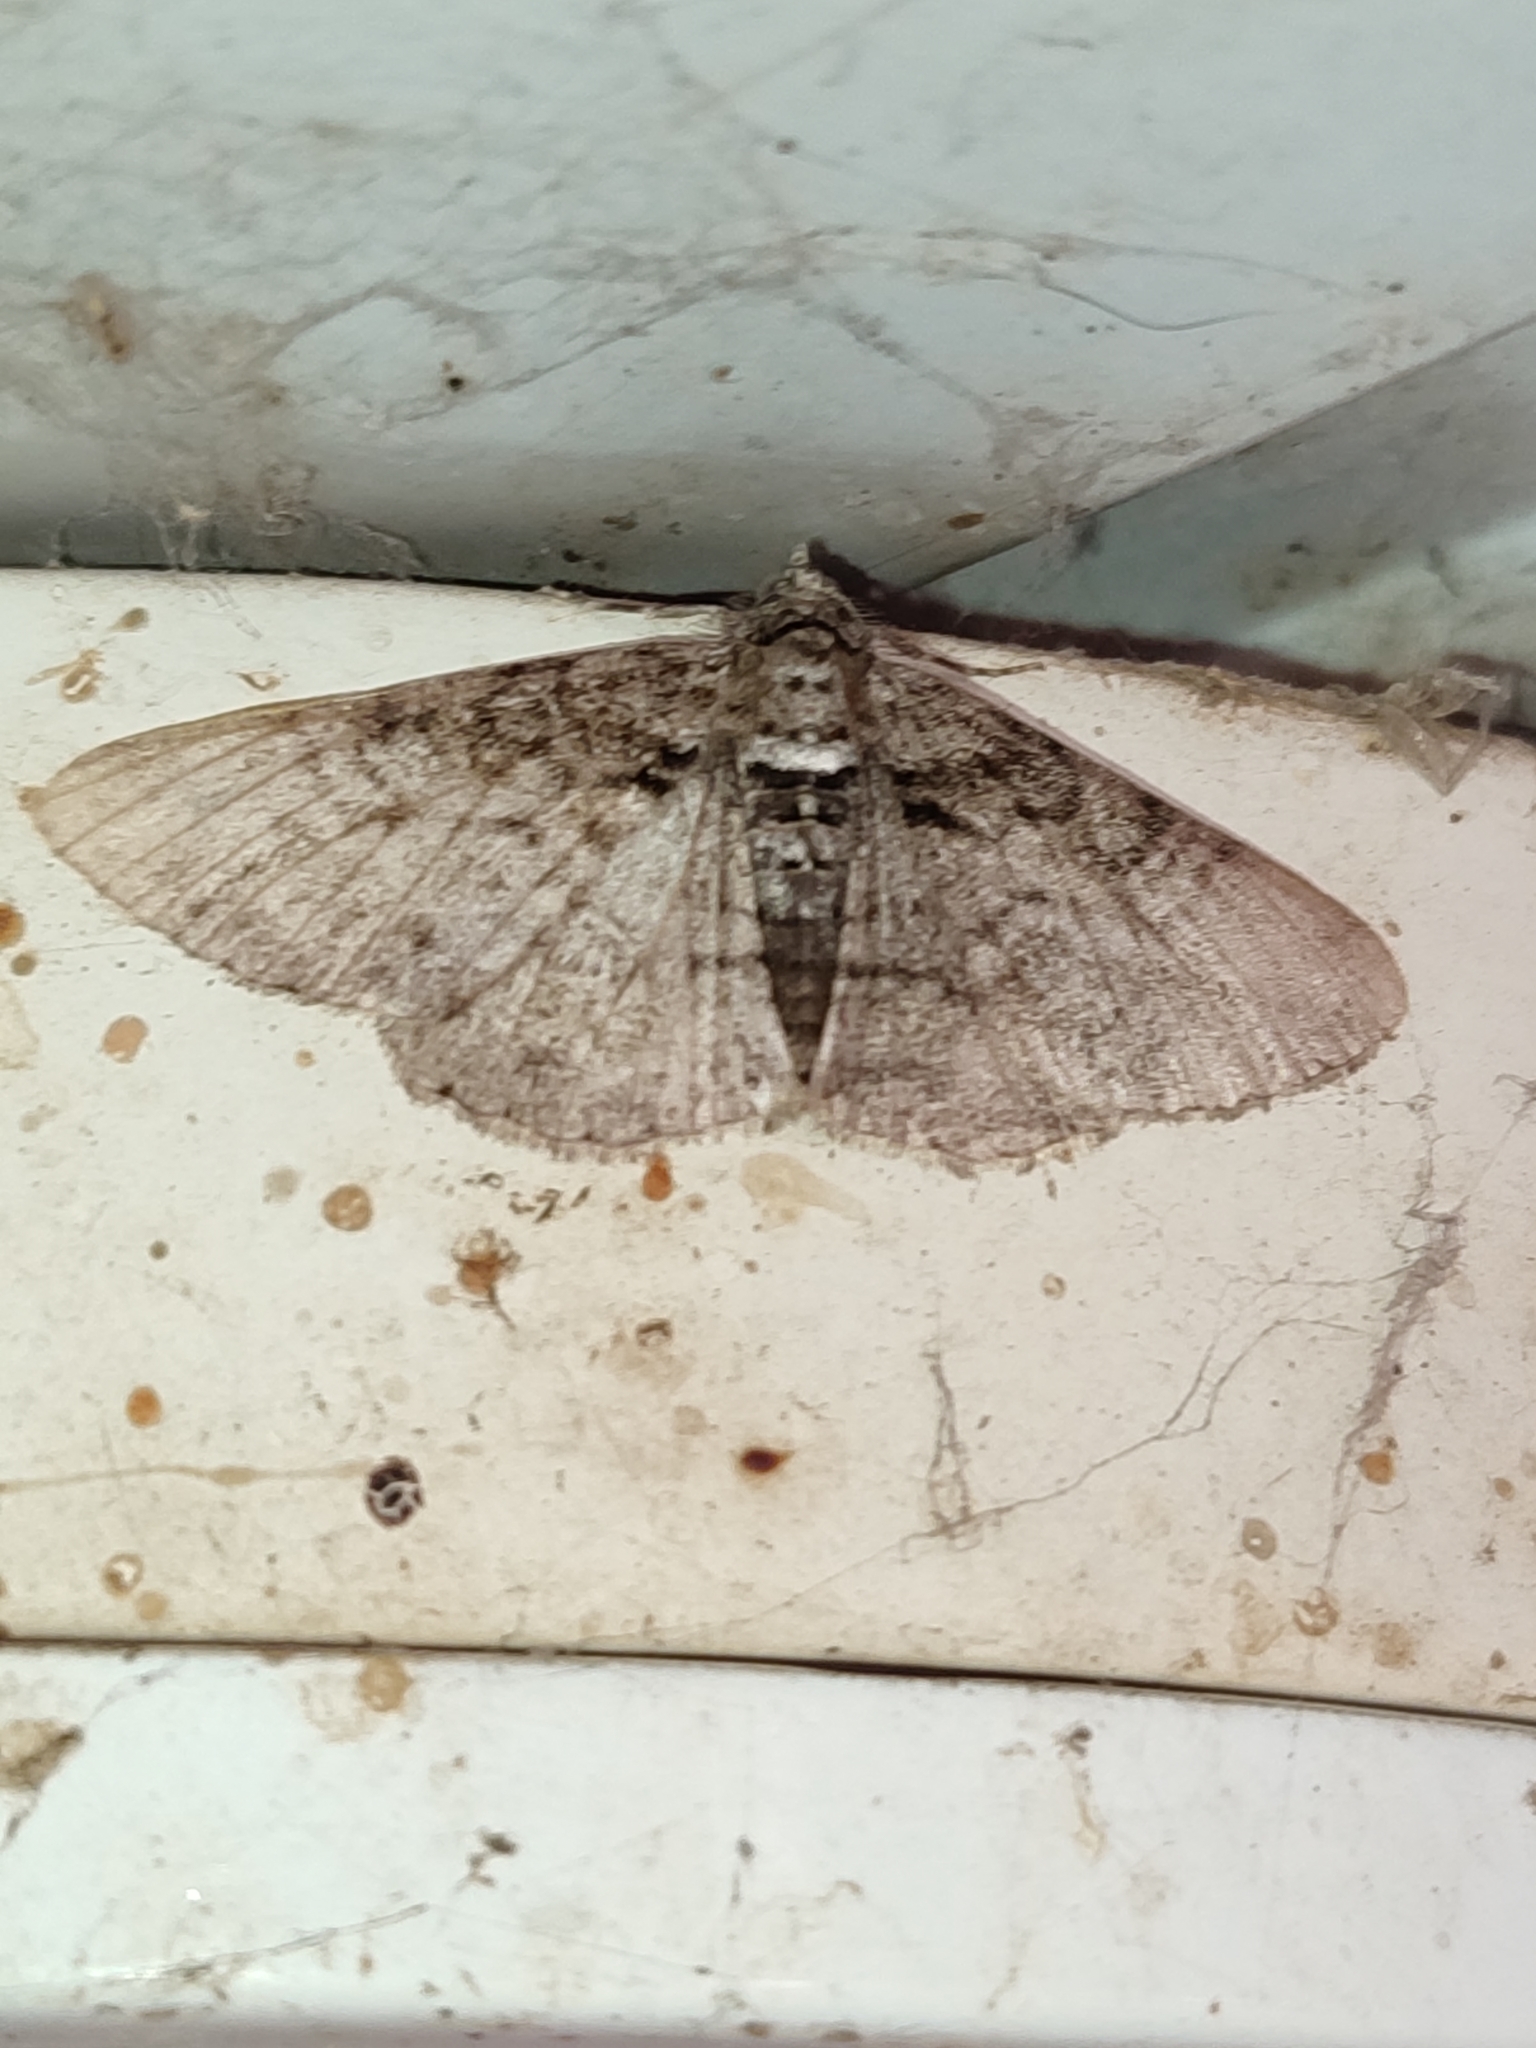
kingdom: Animalia
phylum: Arthropoda
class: Insecta
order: Lepidoptera
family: Geometridae
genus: Cleora
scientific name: Cleora cinctaria
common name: Ringed carpet
